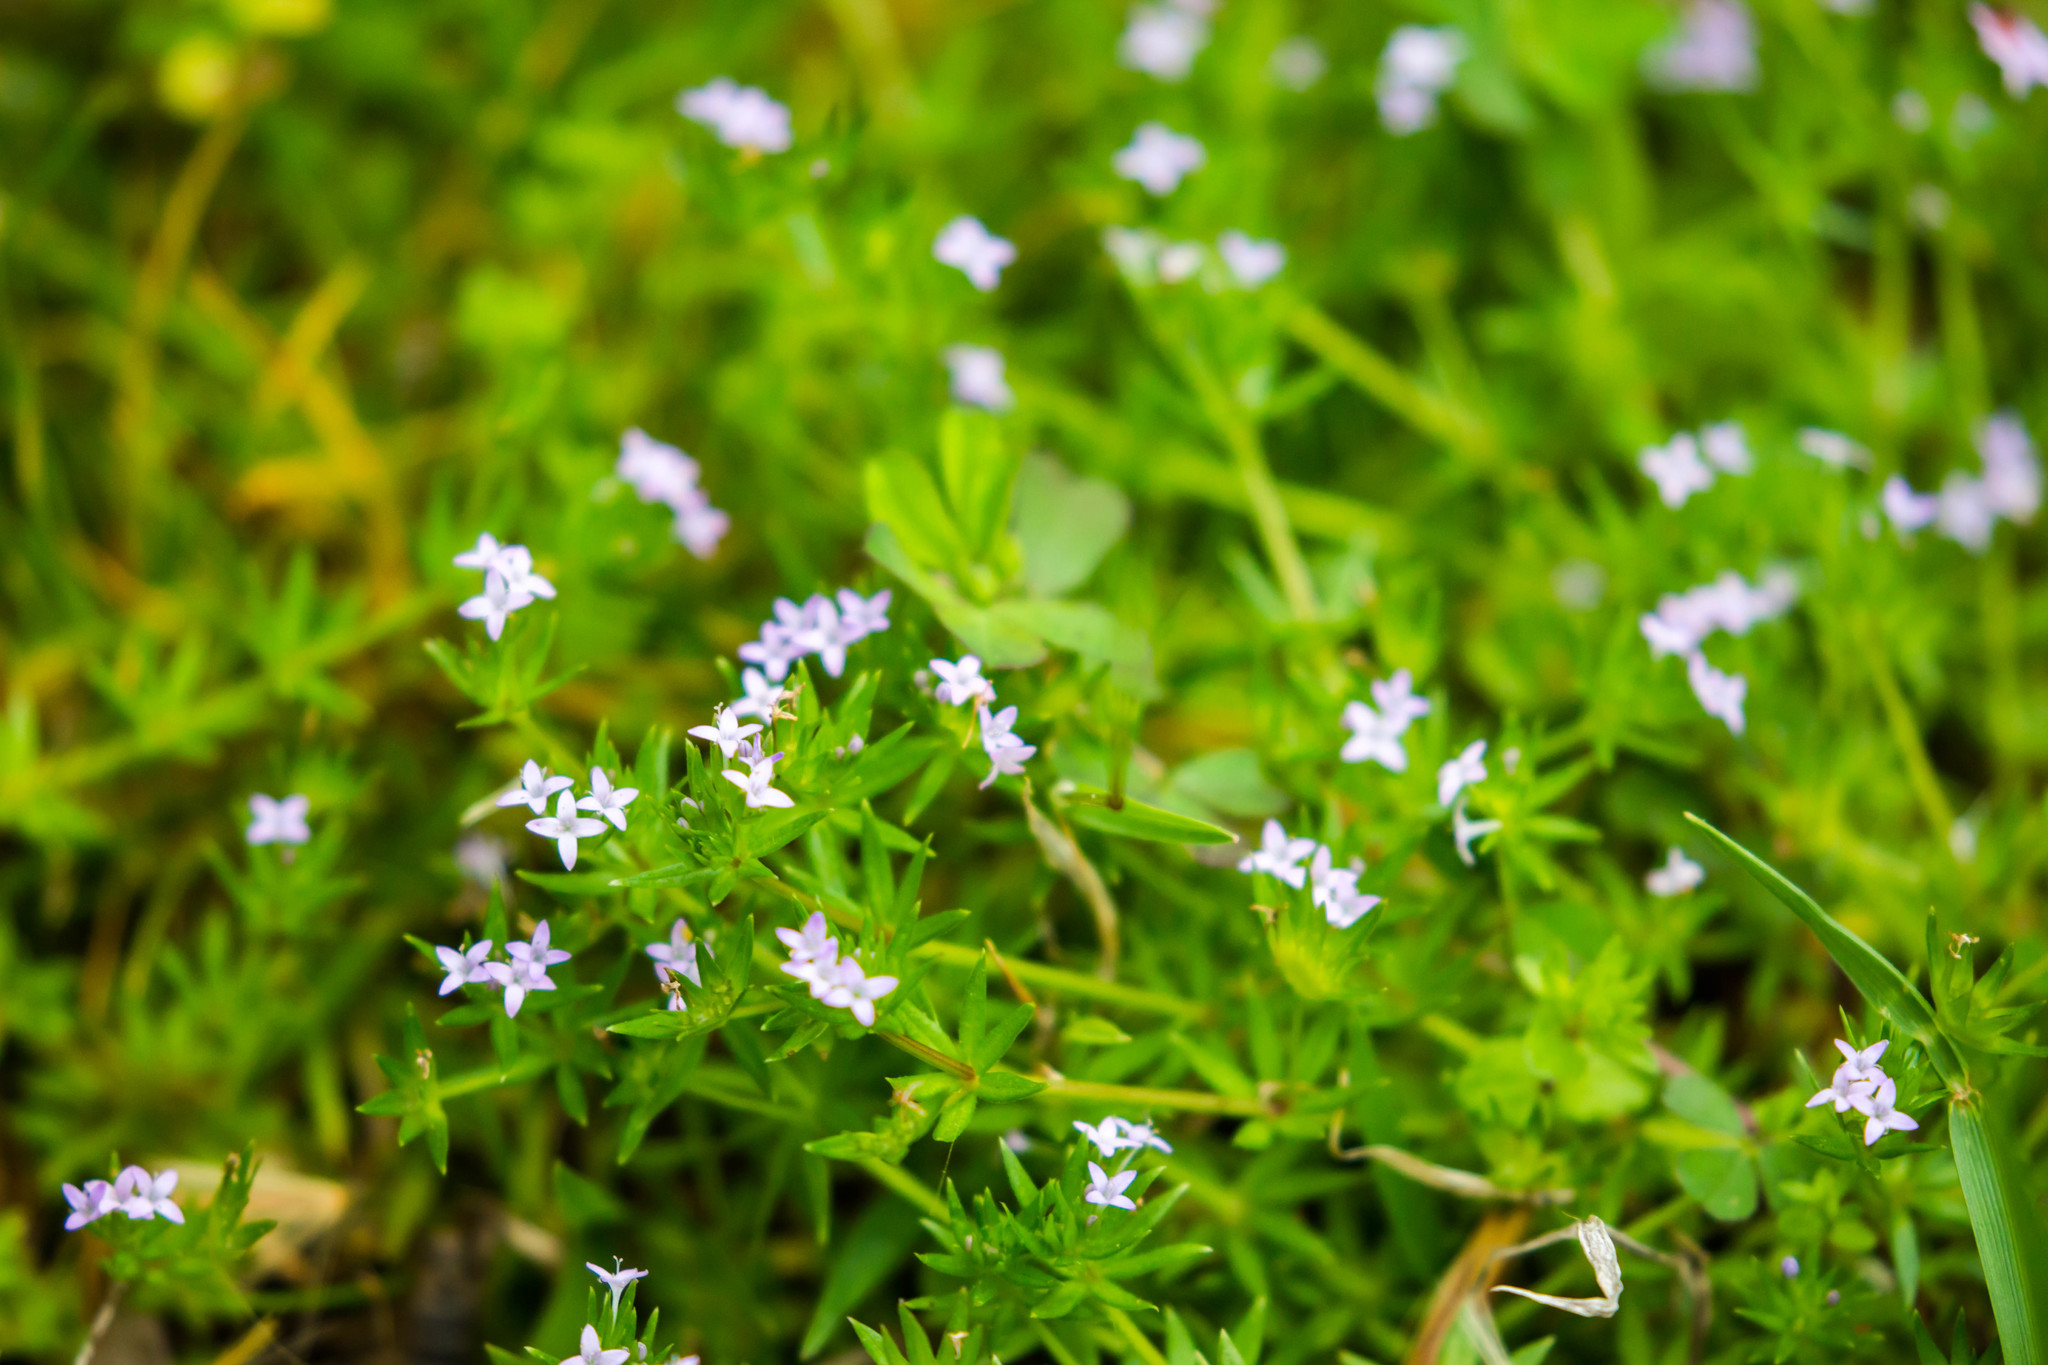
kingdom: Plantae
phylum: Tracheophyta
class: Magnoliopsida
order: Gentianales
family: Rubiaceae
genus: Sherardia
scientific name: Sherardia arvensis
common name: Field madder
